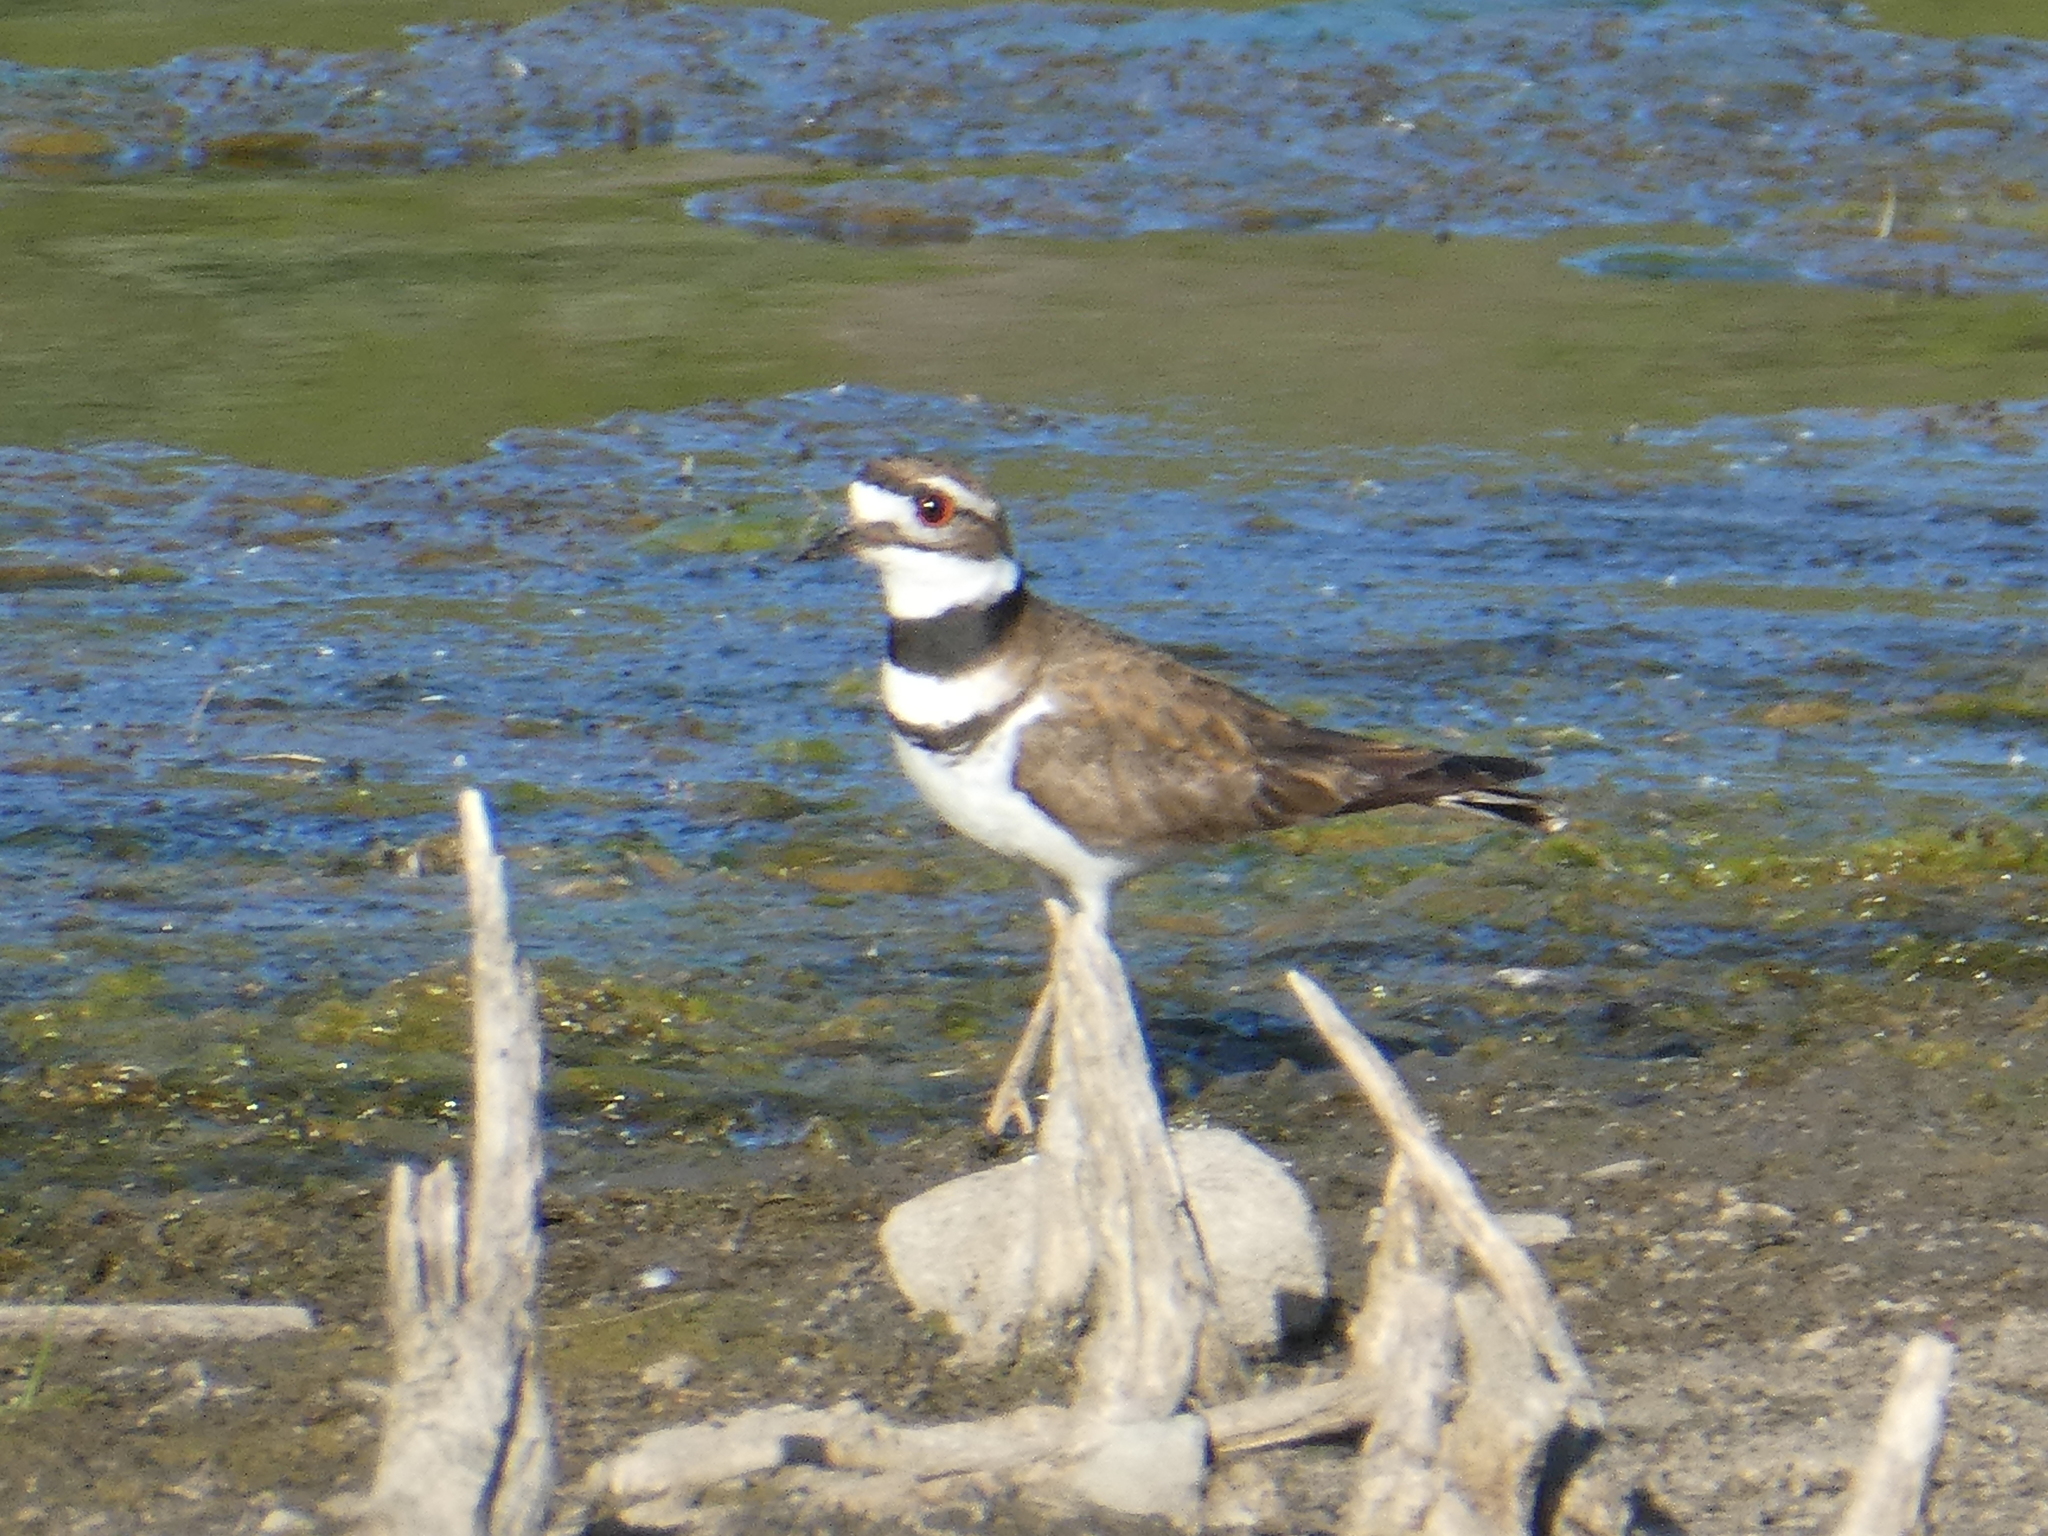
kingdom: Animalia
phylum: Chordata
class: Aves
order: Charadriiformes
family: Charadriidae
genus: Charadrius
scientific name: Charadrius vociferus
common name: Killdeer
